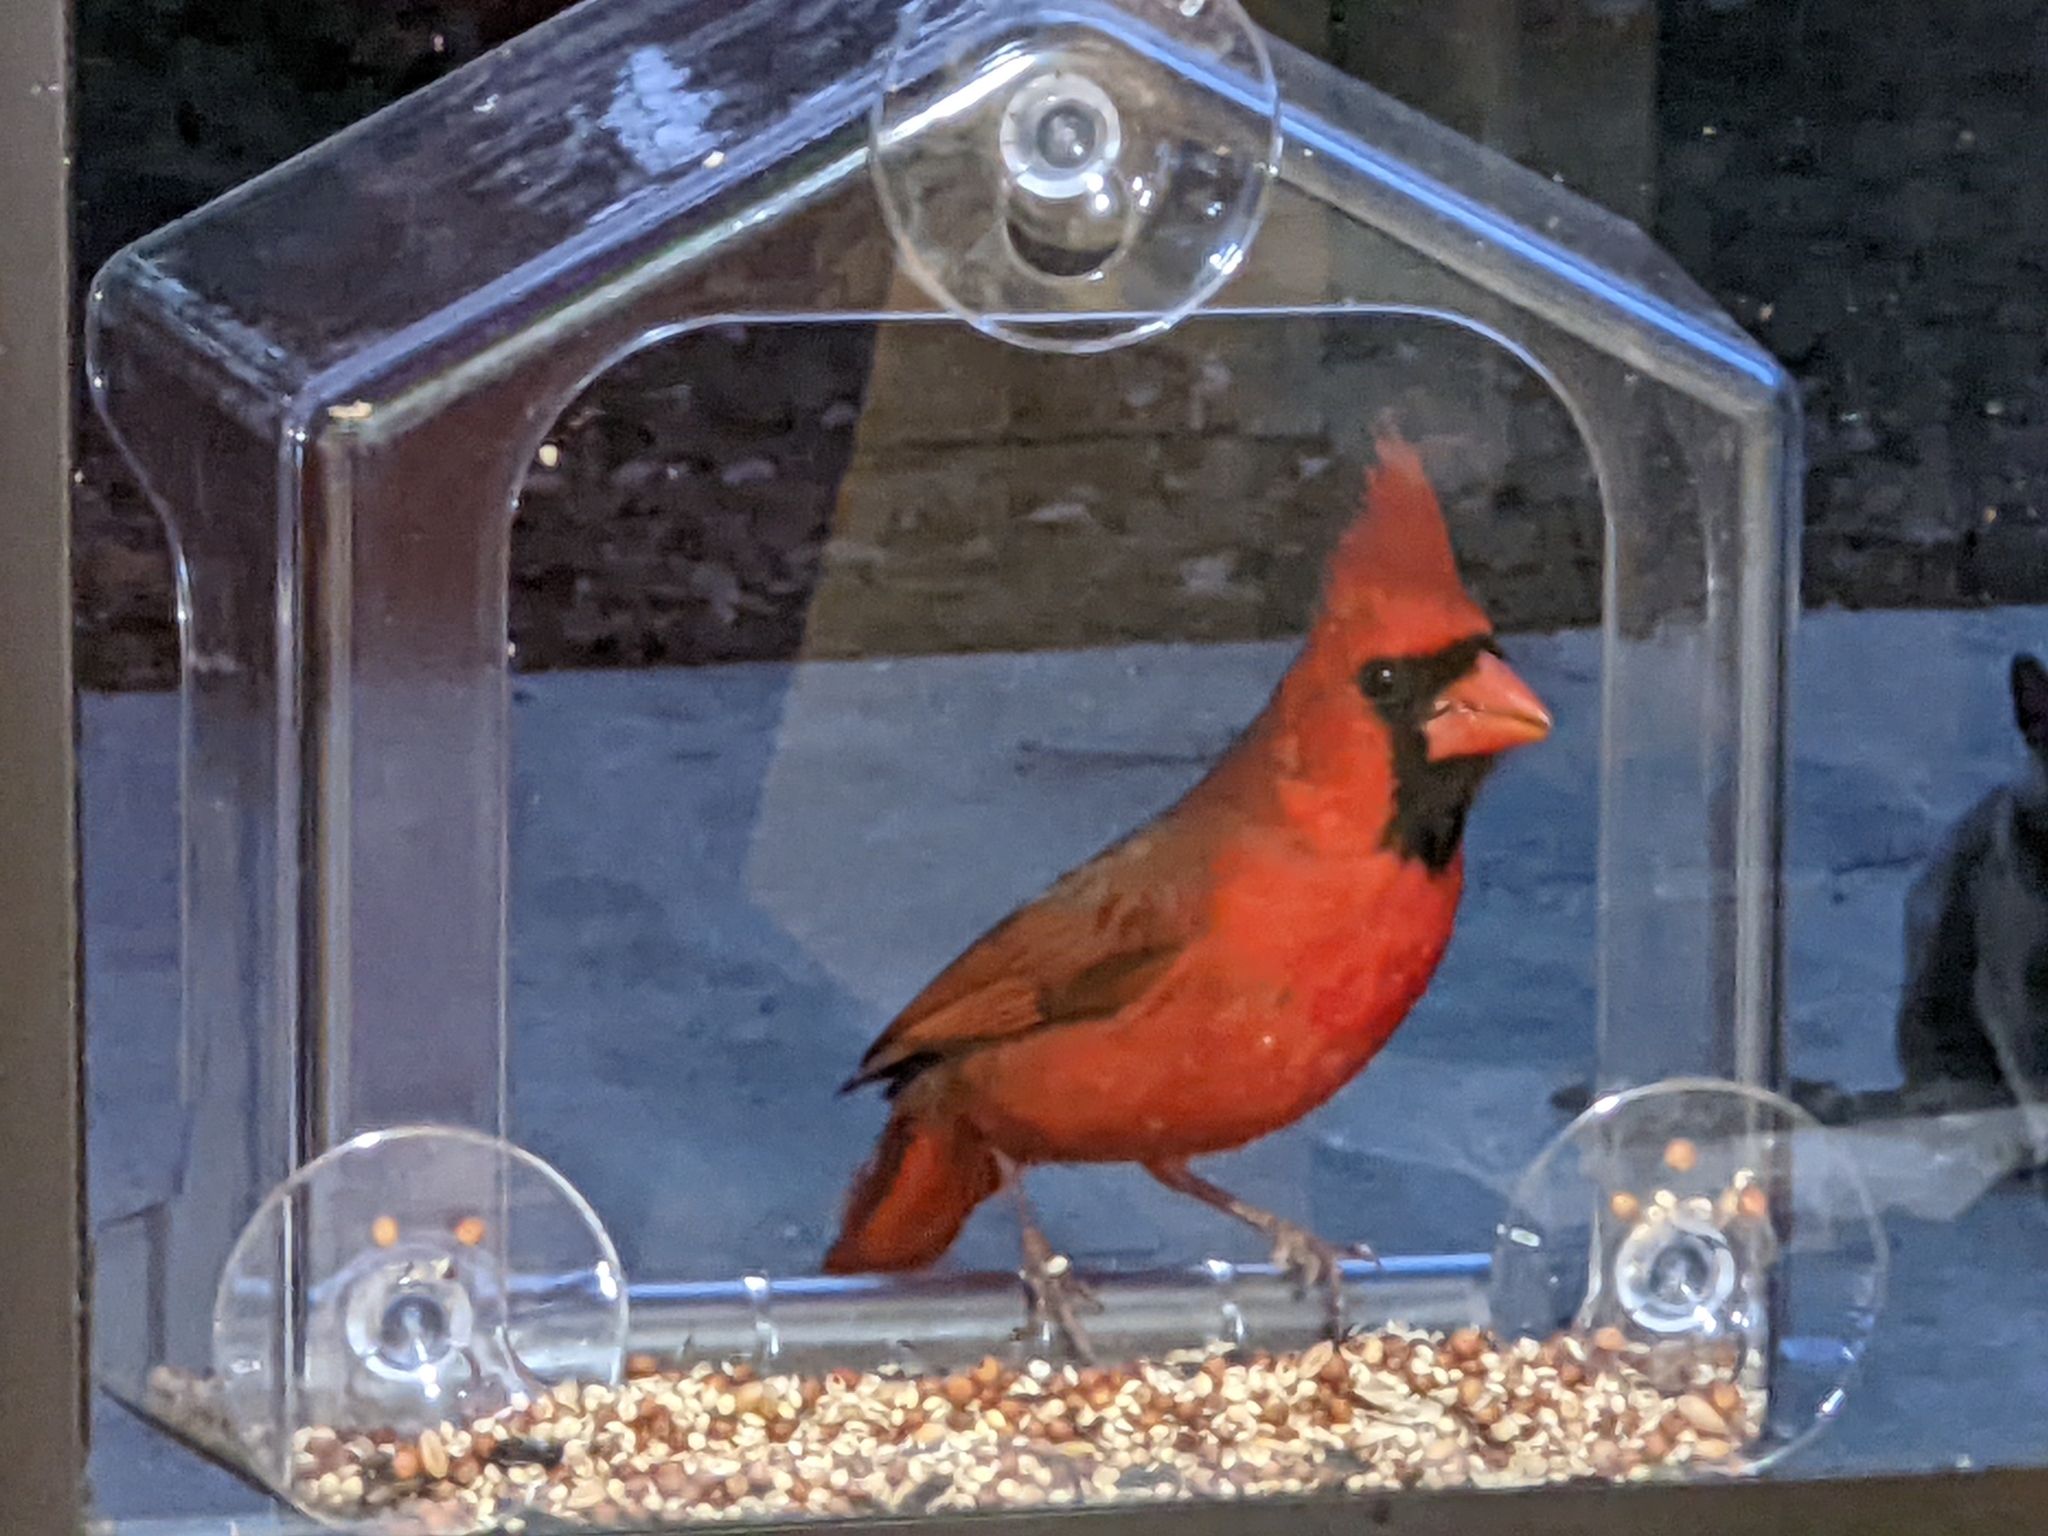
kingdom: Animalia
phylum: Chordata
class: Aves
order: Passeriformes
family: Cardinalidae
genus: Cardinalis
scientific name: Cardinalis cardinalis
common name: Northern cardinal
